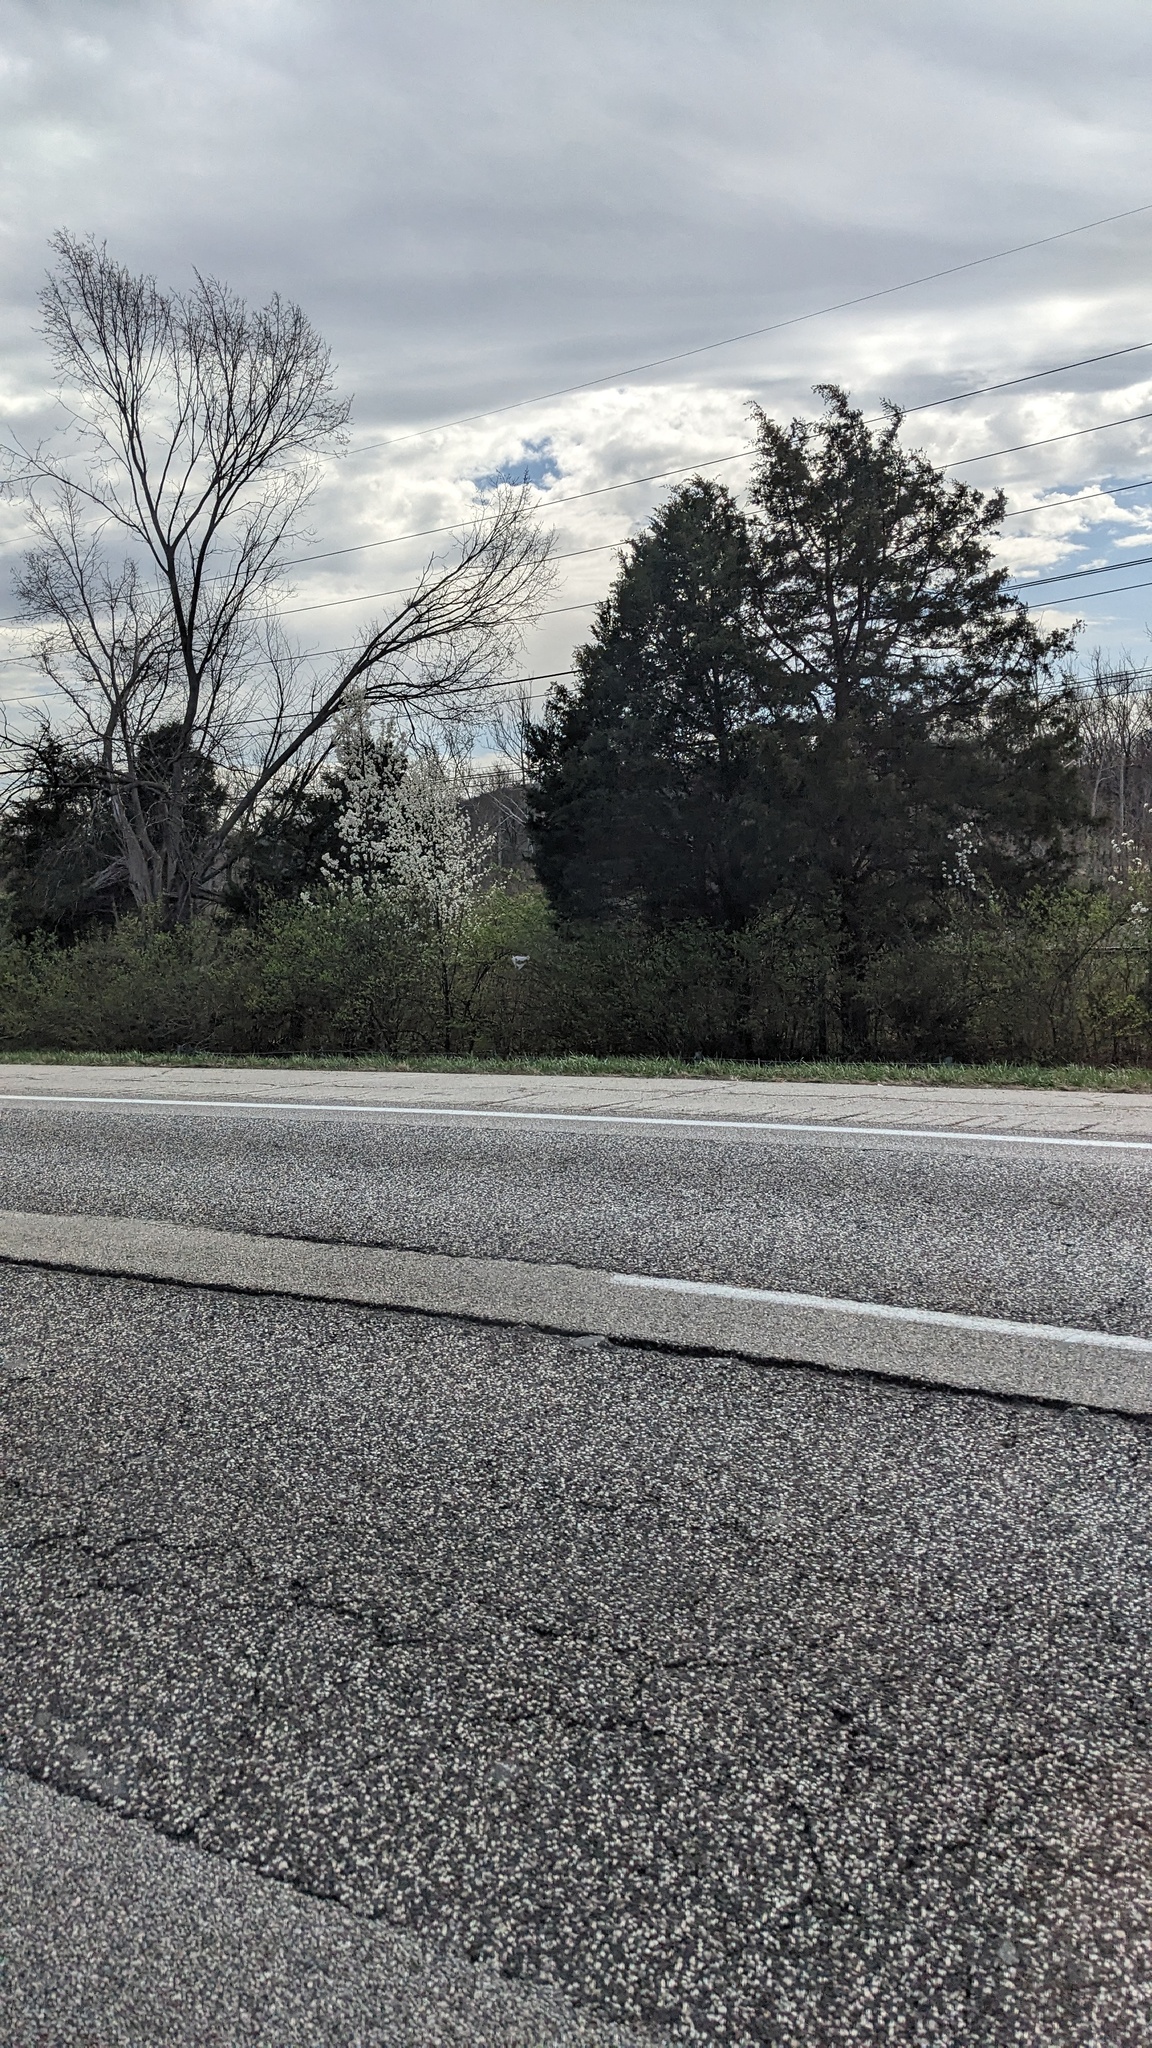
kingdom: Plantae
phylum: Tracheophyta
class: Magnoliopsida
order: Rosales
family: Rosaceae
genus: Pyrus
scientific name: Pyrus calleryana
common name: Callery pear
